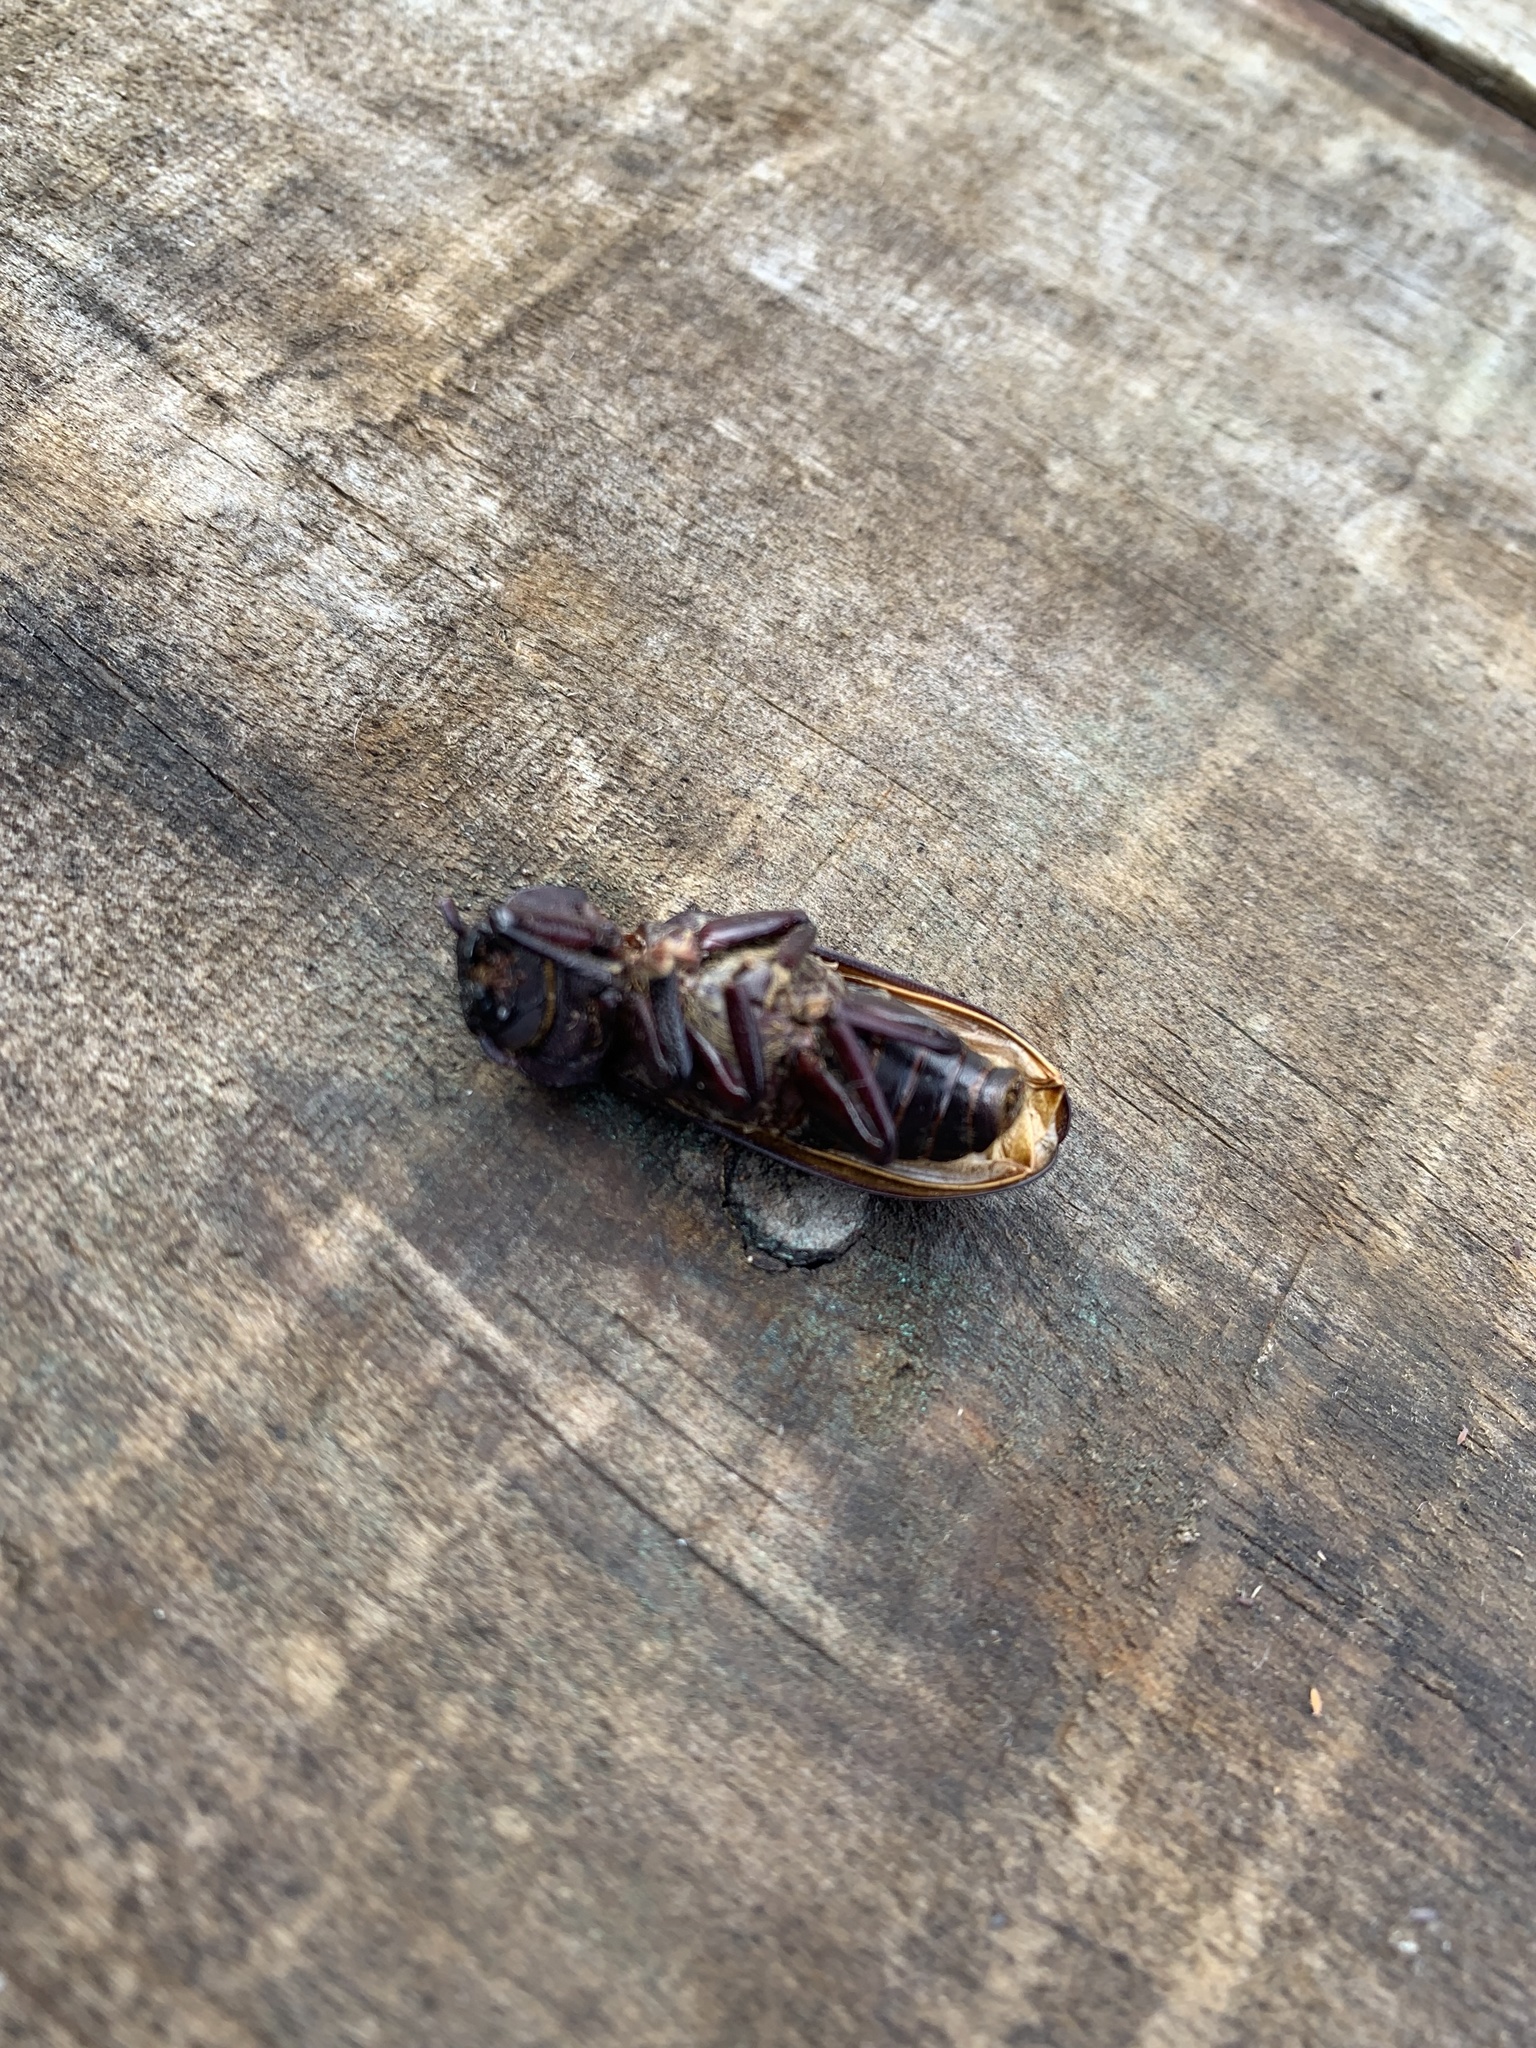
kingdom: Animalia
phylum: Arthropoda
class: Insecta
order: Coleoptera
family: Cerambycidae
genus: Chiasmetes
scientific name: Chiasmetes limae
